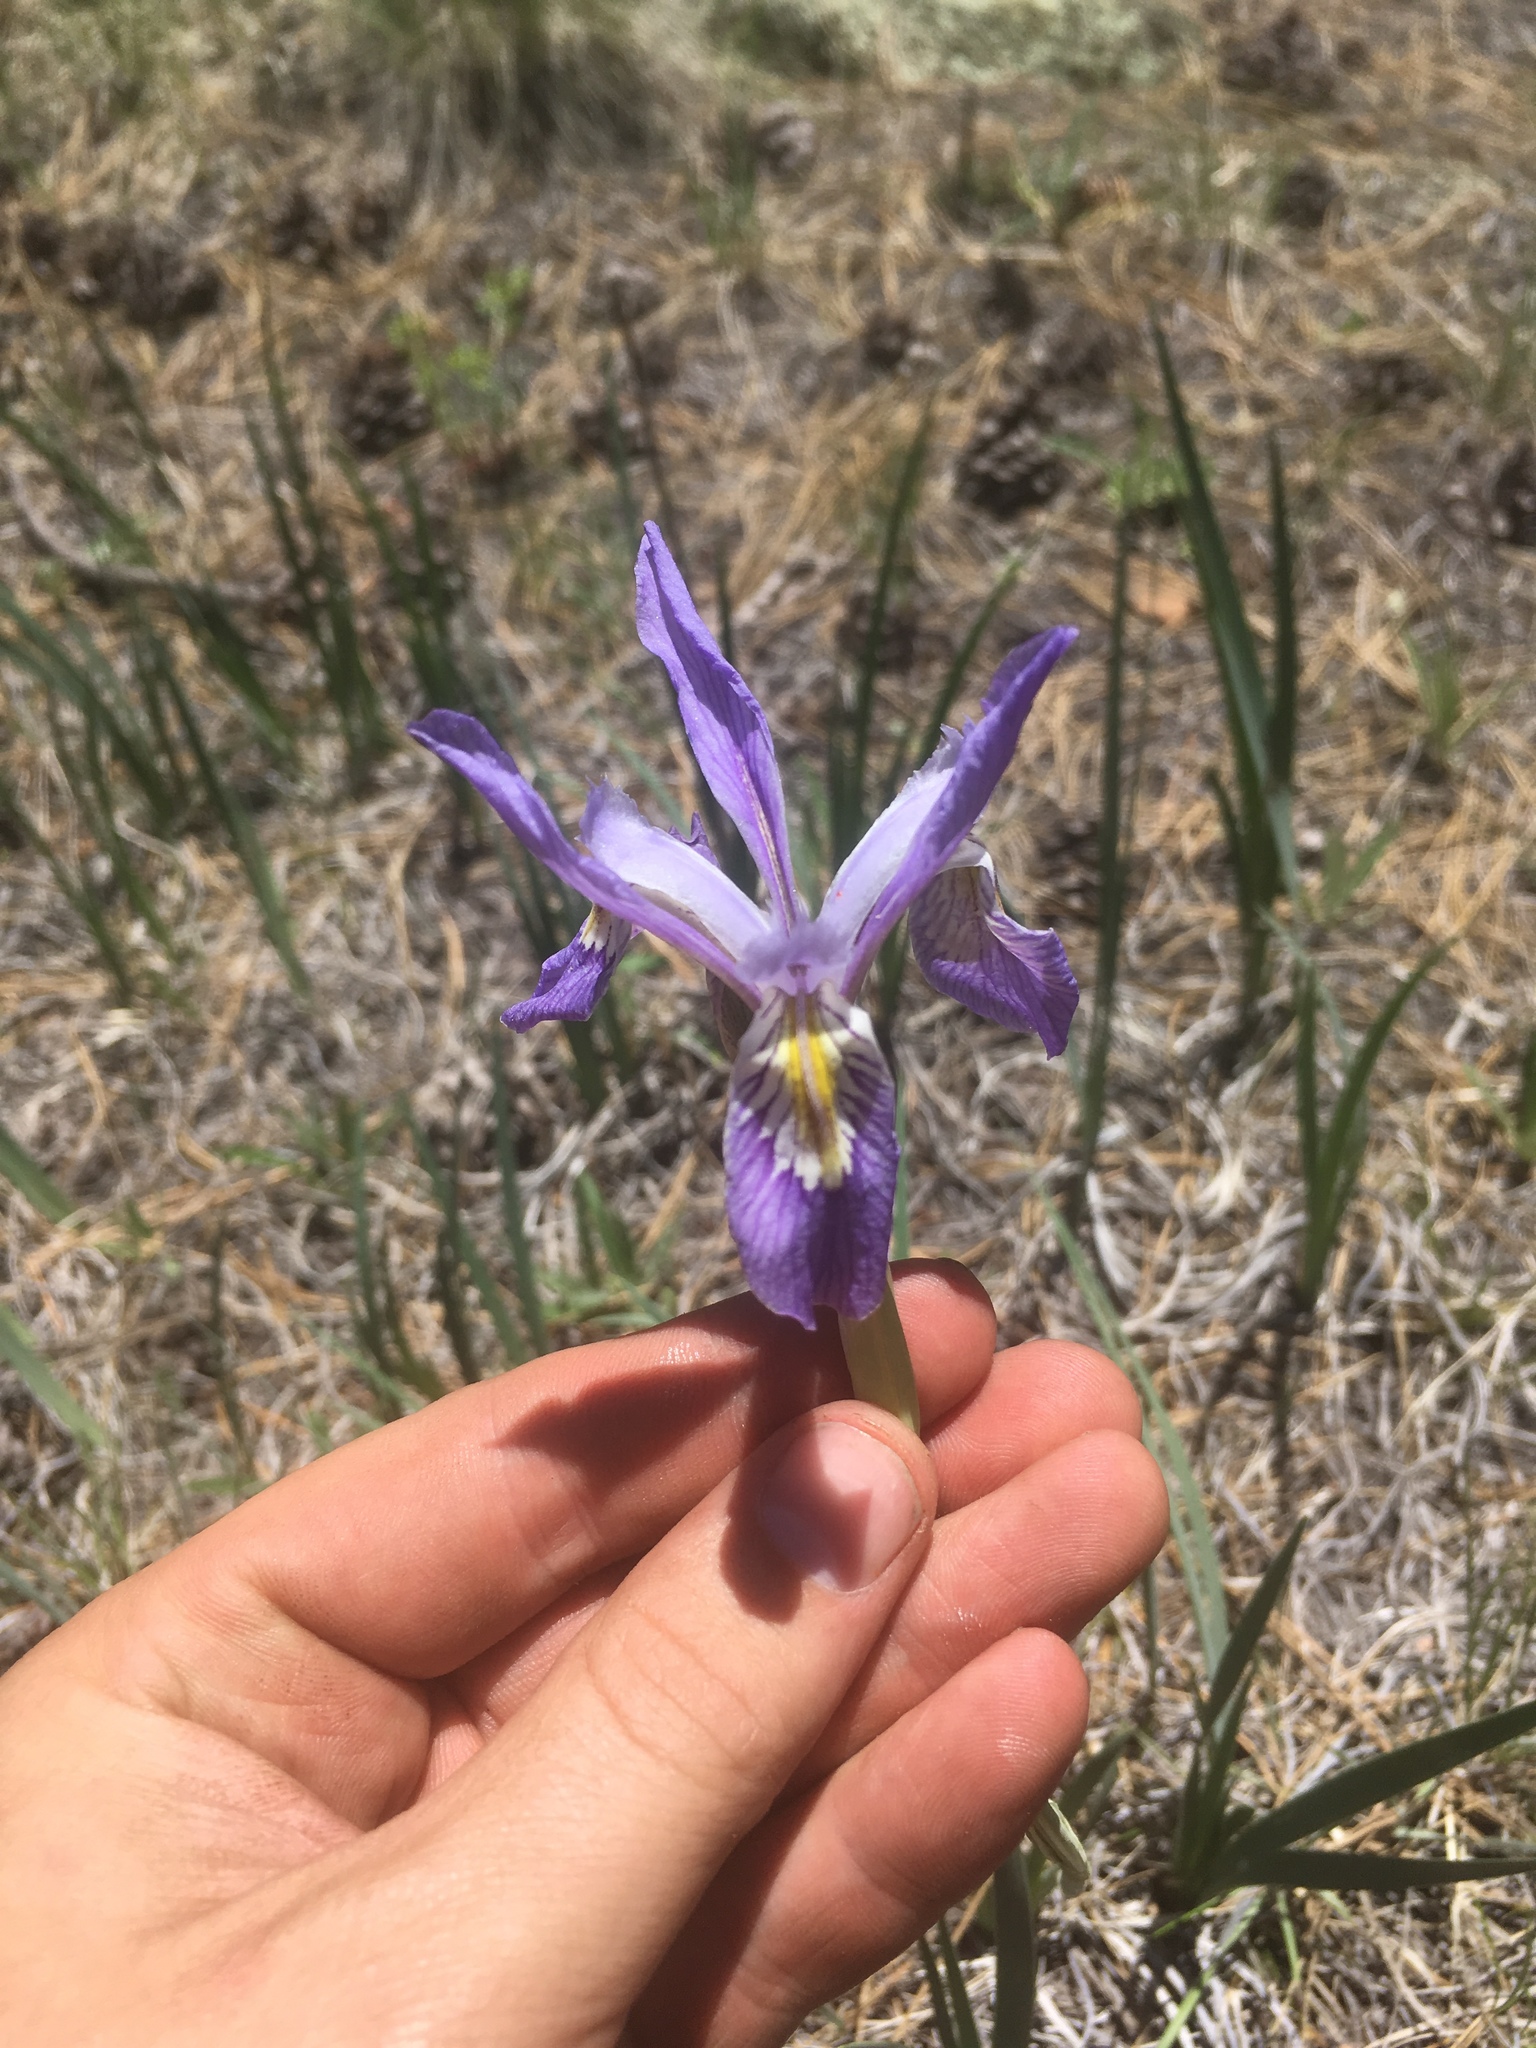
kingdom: Plantae
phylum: Tracheophyta
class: Liliopsida
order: Asparagales
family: Iridaceae
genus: Iris
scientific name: Iris missouriensis
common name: Rocky mountain iris
